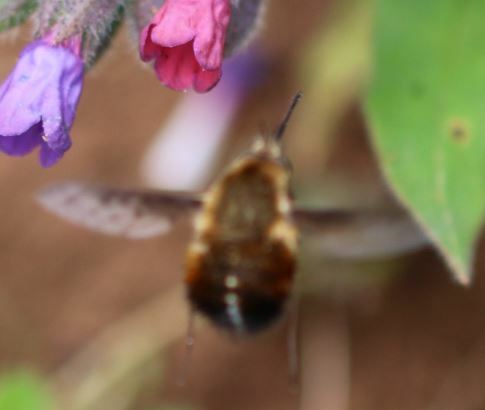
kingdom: Animalia
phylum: Arthropoda
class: Insecta
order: Diptera
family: Bombyliidae
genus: Bombylius
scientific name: Bombylius discolor
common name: Dotted bee-fly
